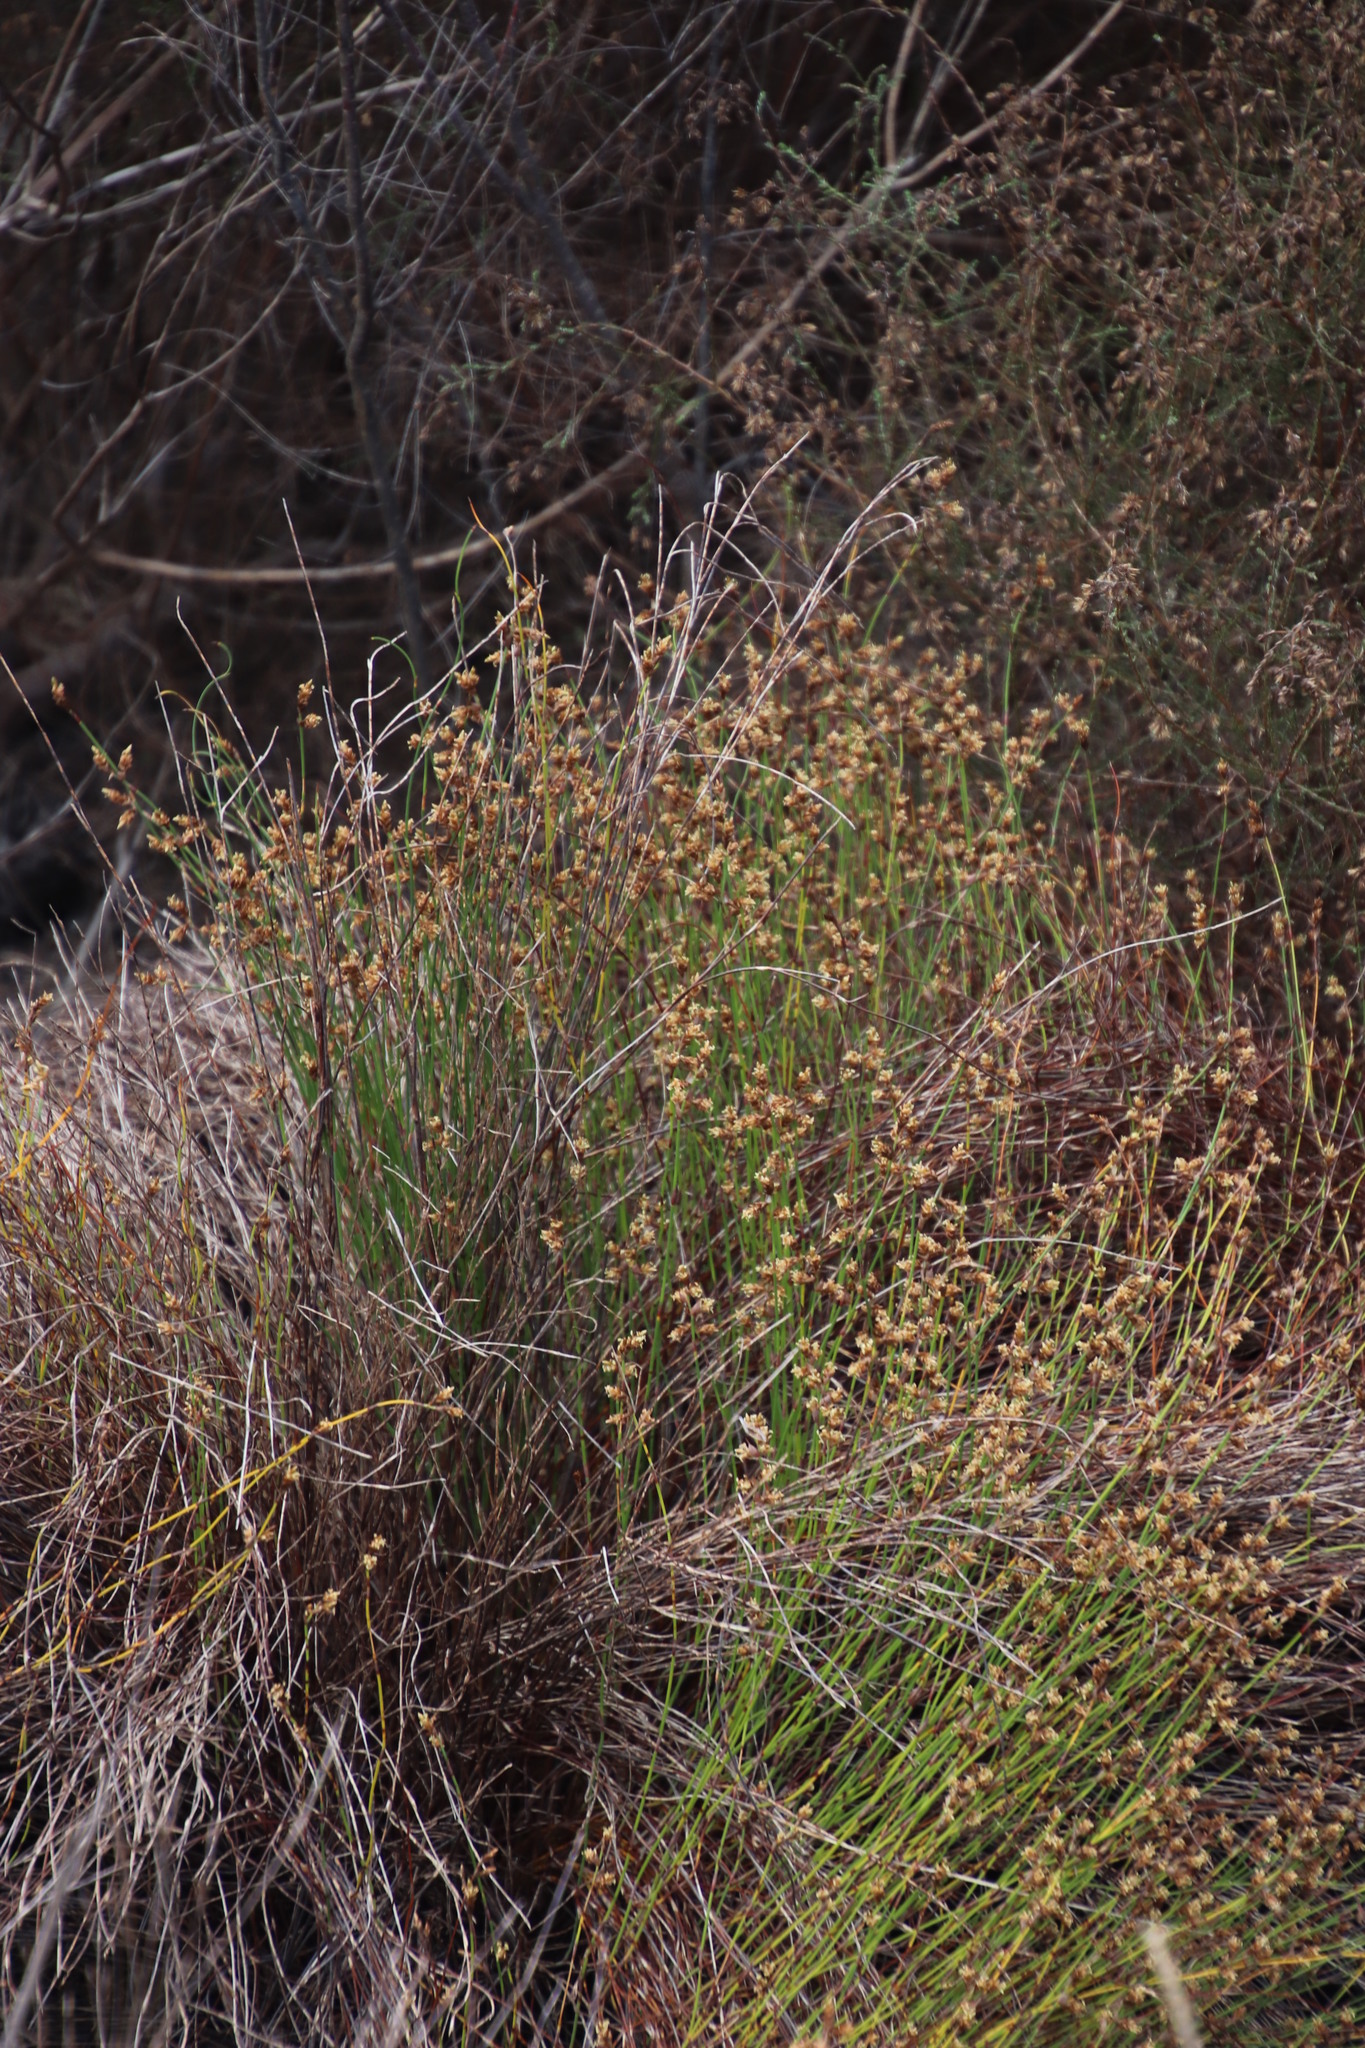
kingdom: Plantae
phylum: Tracheophyta
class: Liliopsida
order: Poales
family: Restionaceae
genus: Mastersiella
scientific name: Mastersiella digitata
